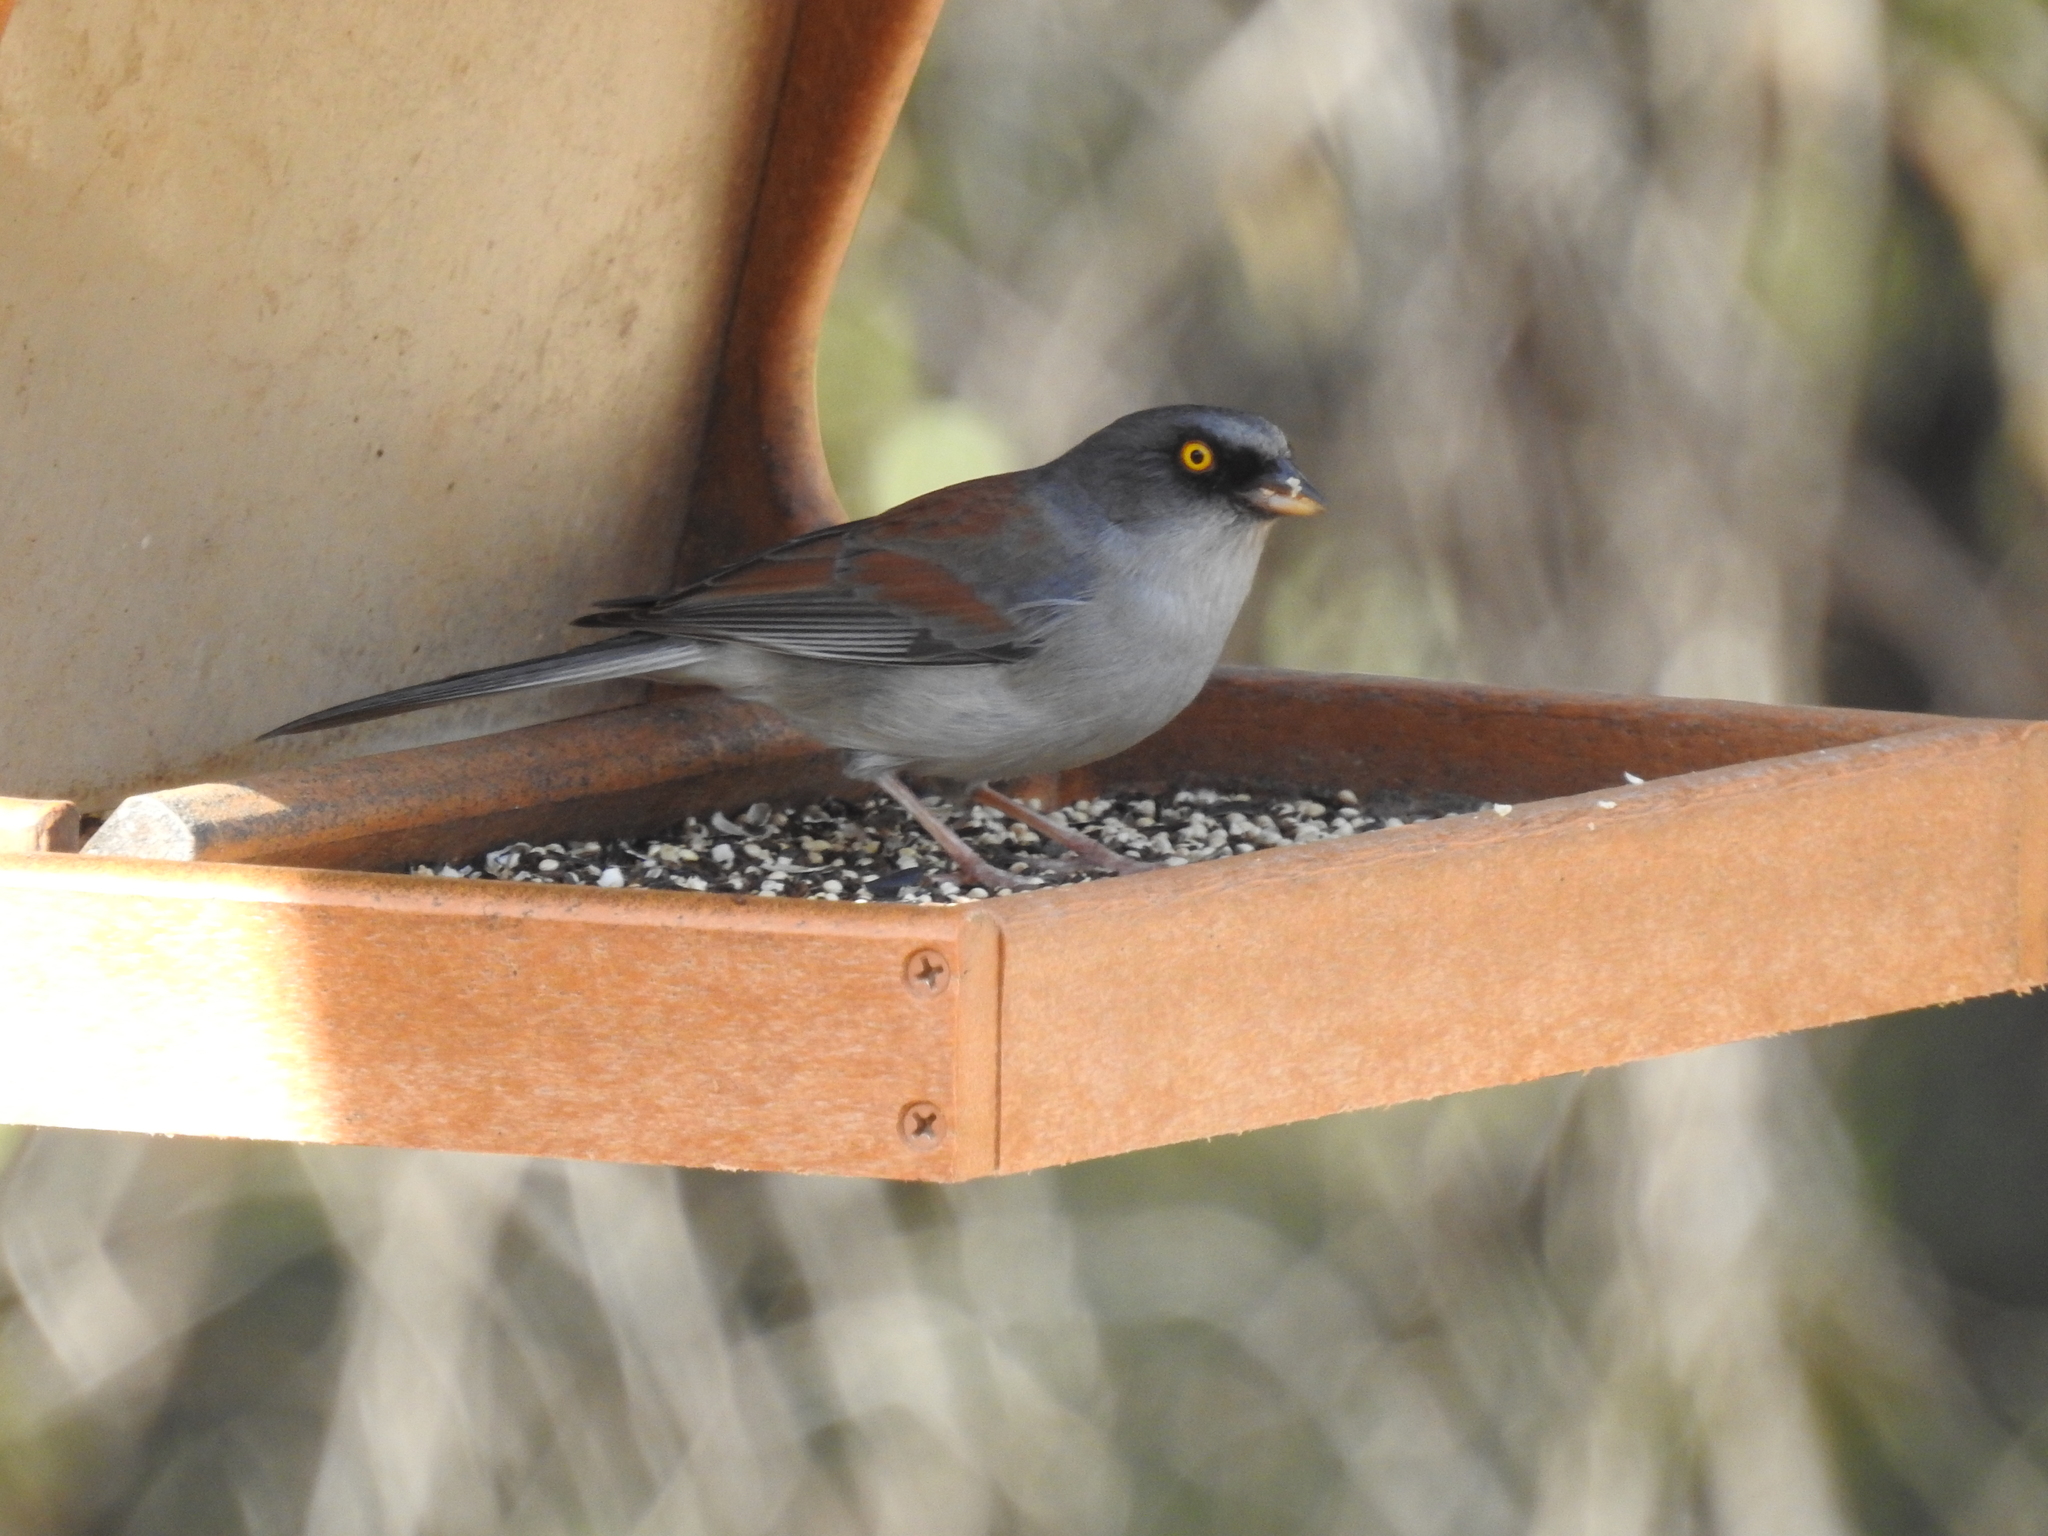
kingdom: Animalia
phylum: Chordata
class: Aves
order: Passeriformes
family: Passerellidae
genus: Junco
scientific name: Junco phaeonotus
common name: Yellow-eyed junco
